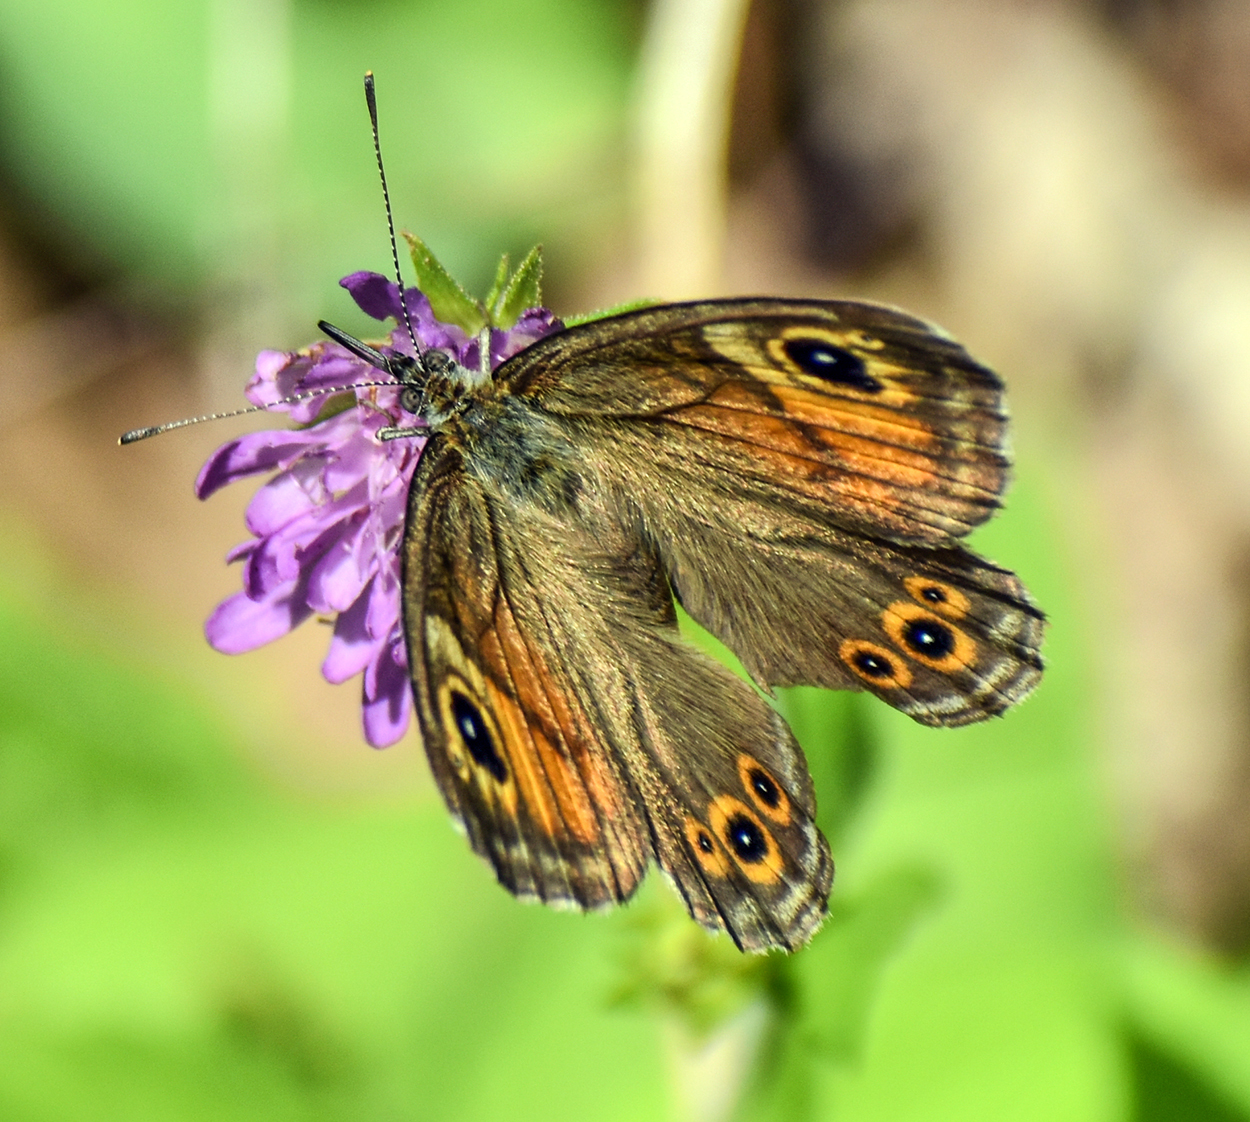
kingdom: Animalia
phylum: Arthropoda
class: Insecta
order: Lepidoptera
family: Nymphalidae
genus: Pararge
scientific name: Pararge Lasiommata maera
